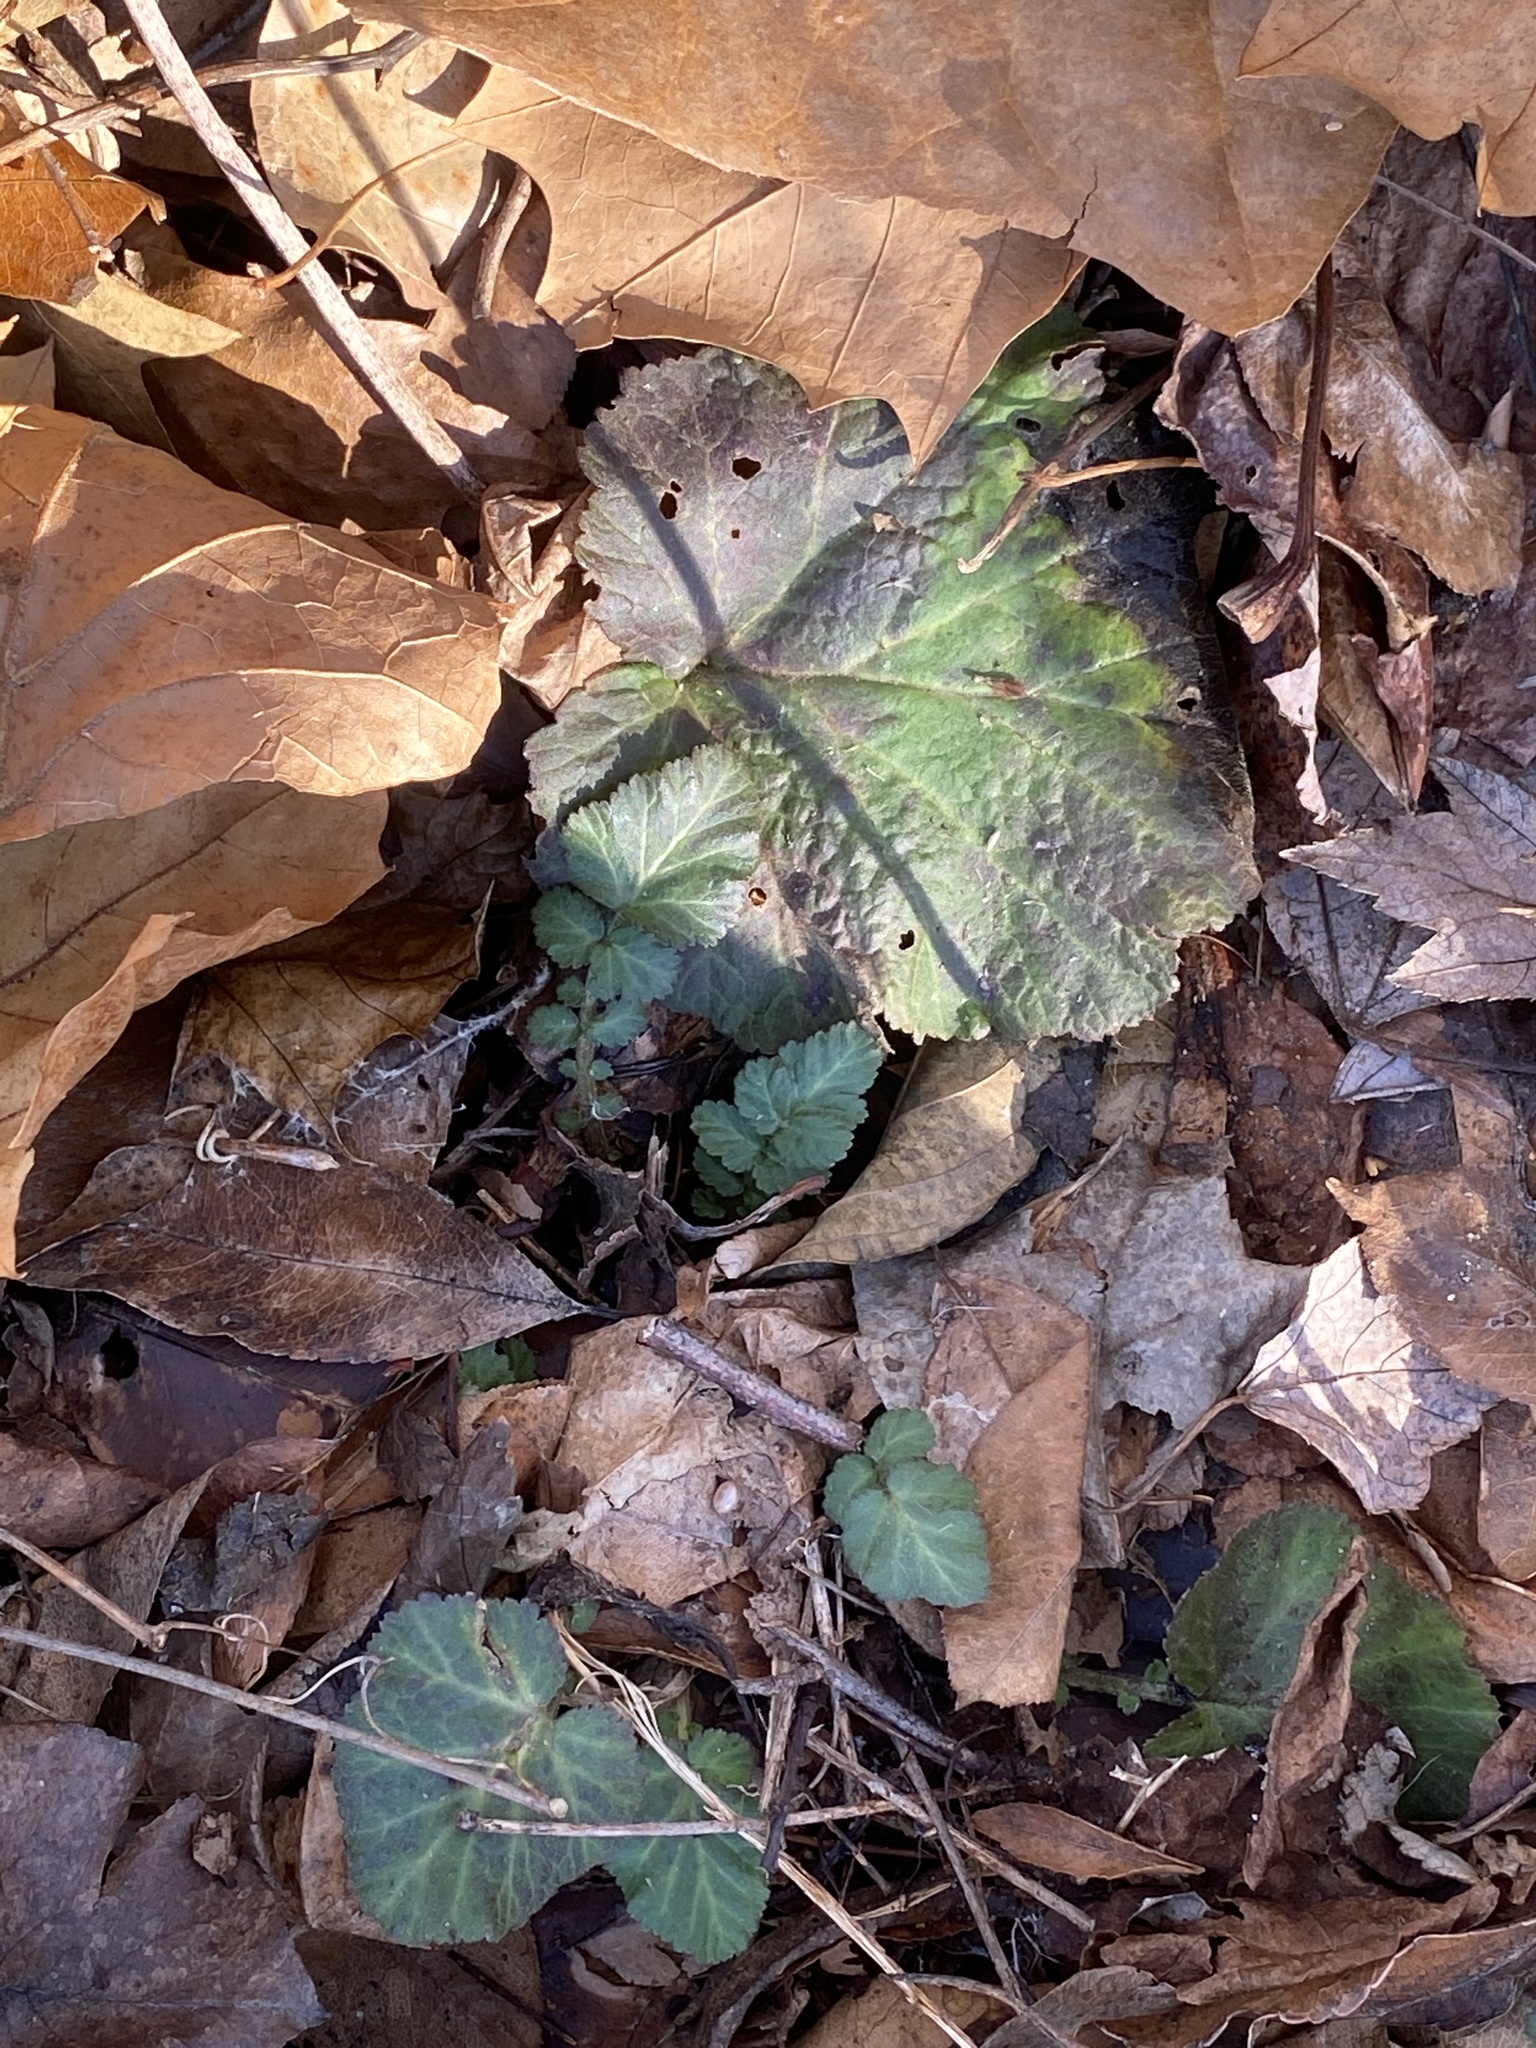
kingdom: Plantae
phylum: Tracheophyta
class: Magnoliopsida
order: Rosales
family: Rosaceae
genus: Geum
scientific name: Geum canadense
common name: White avens
